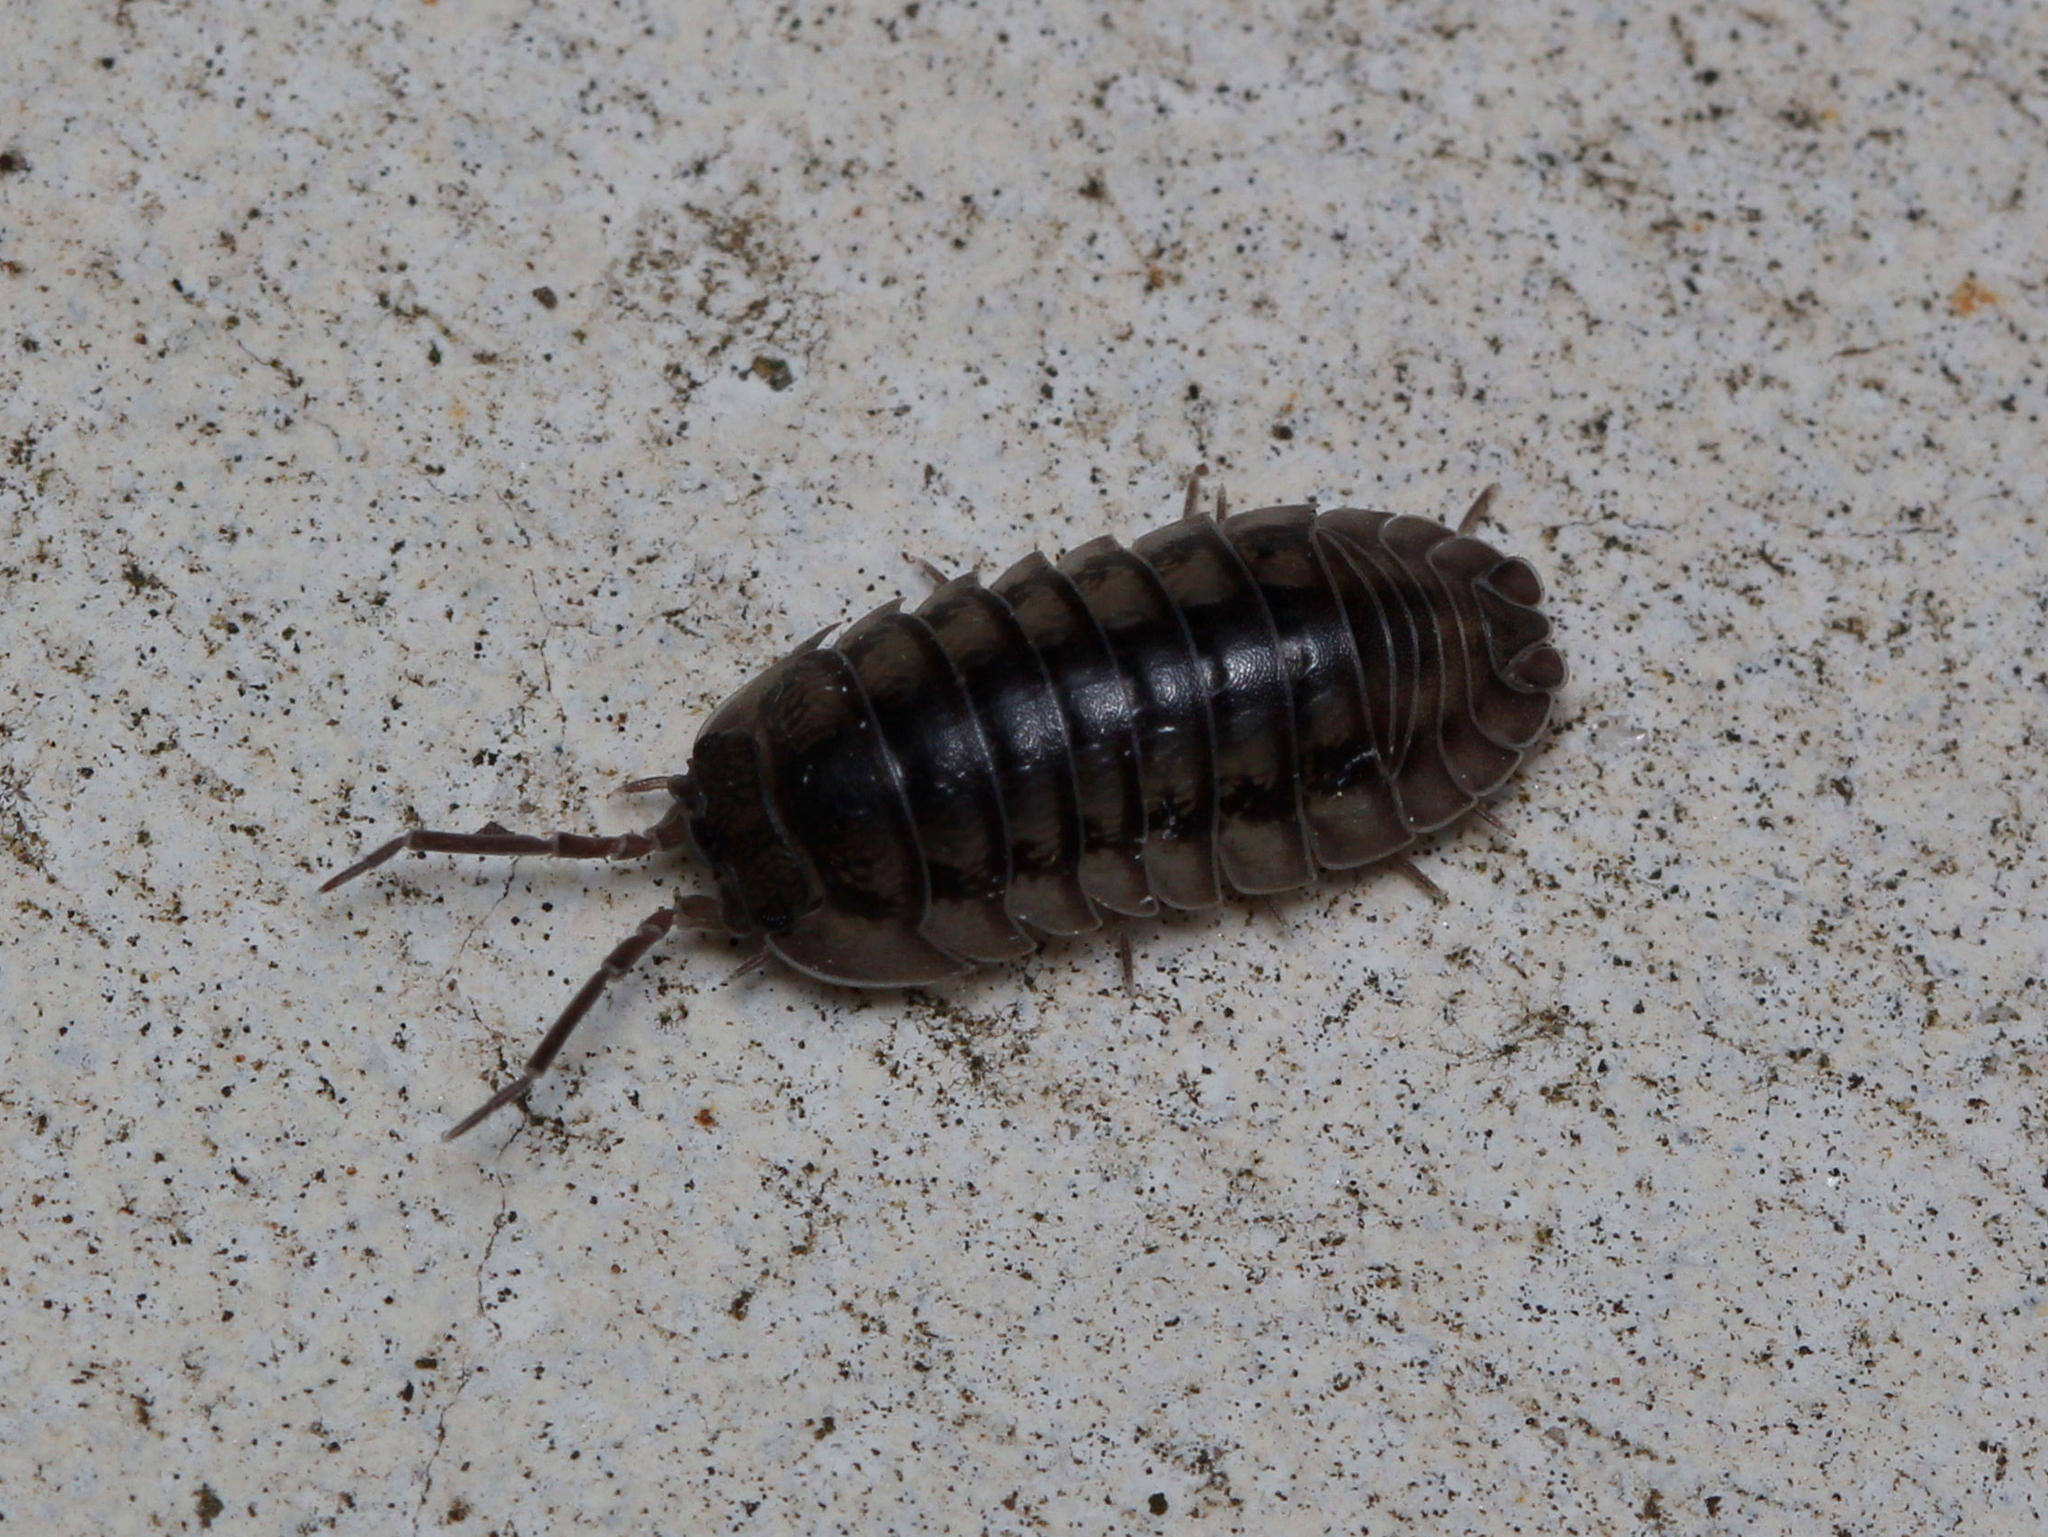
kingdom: Animalia
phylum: Arthropoda
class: Malacostraca
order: Isopoda
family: Armadillidiidae
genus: Armadillidium
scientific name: Armadillidium nasatum
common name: Isopod
